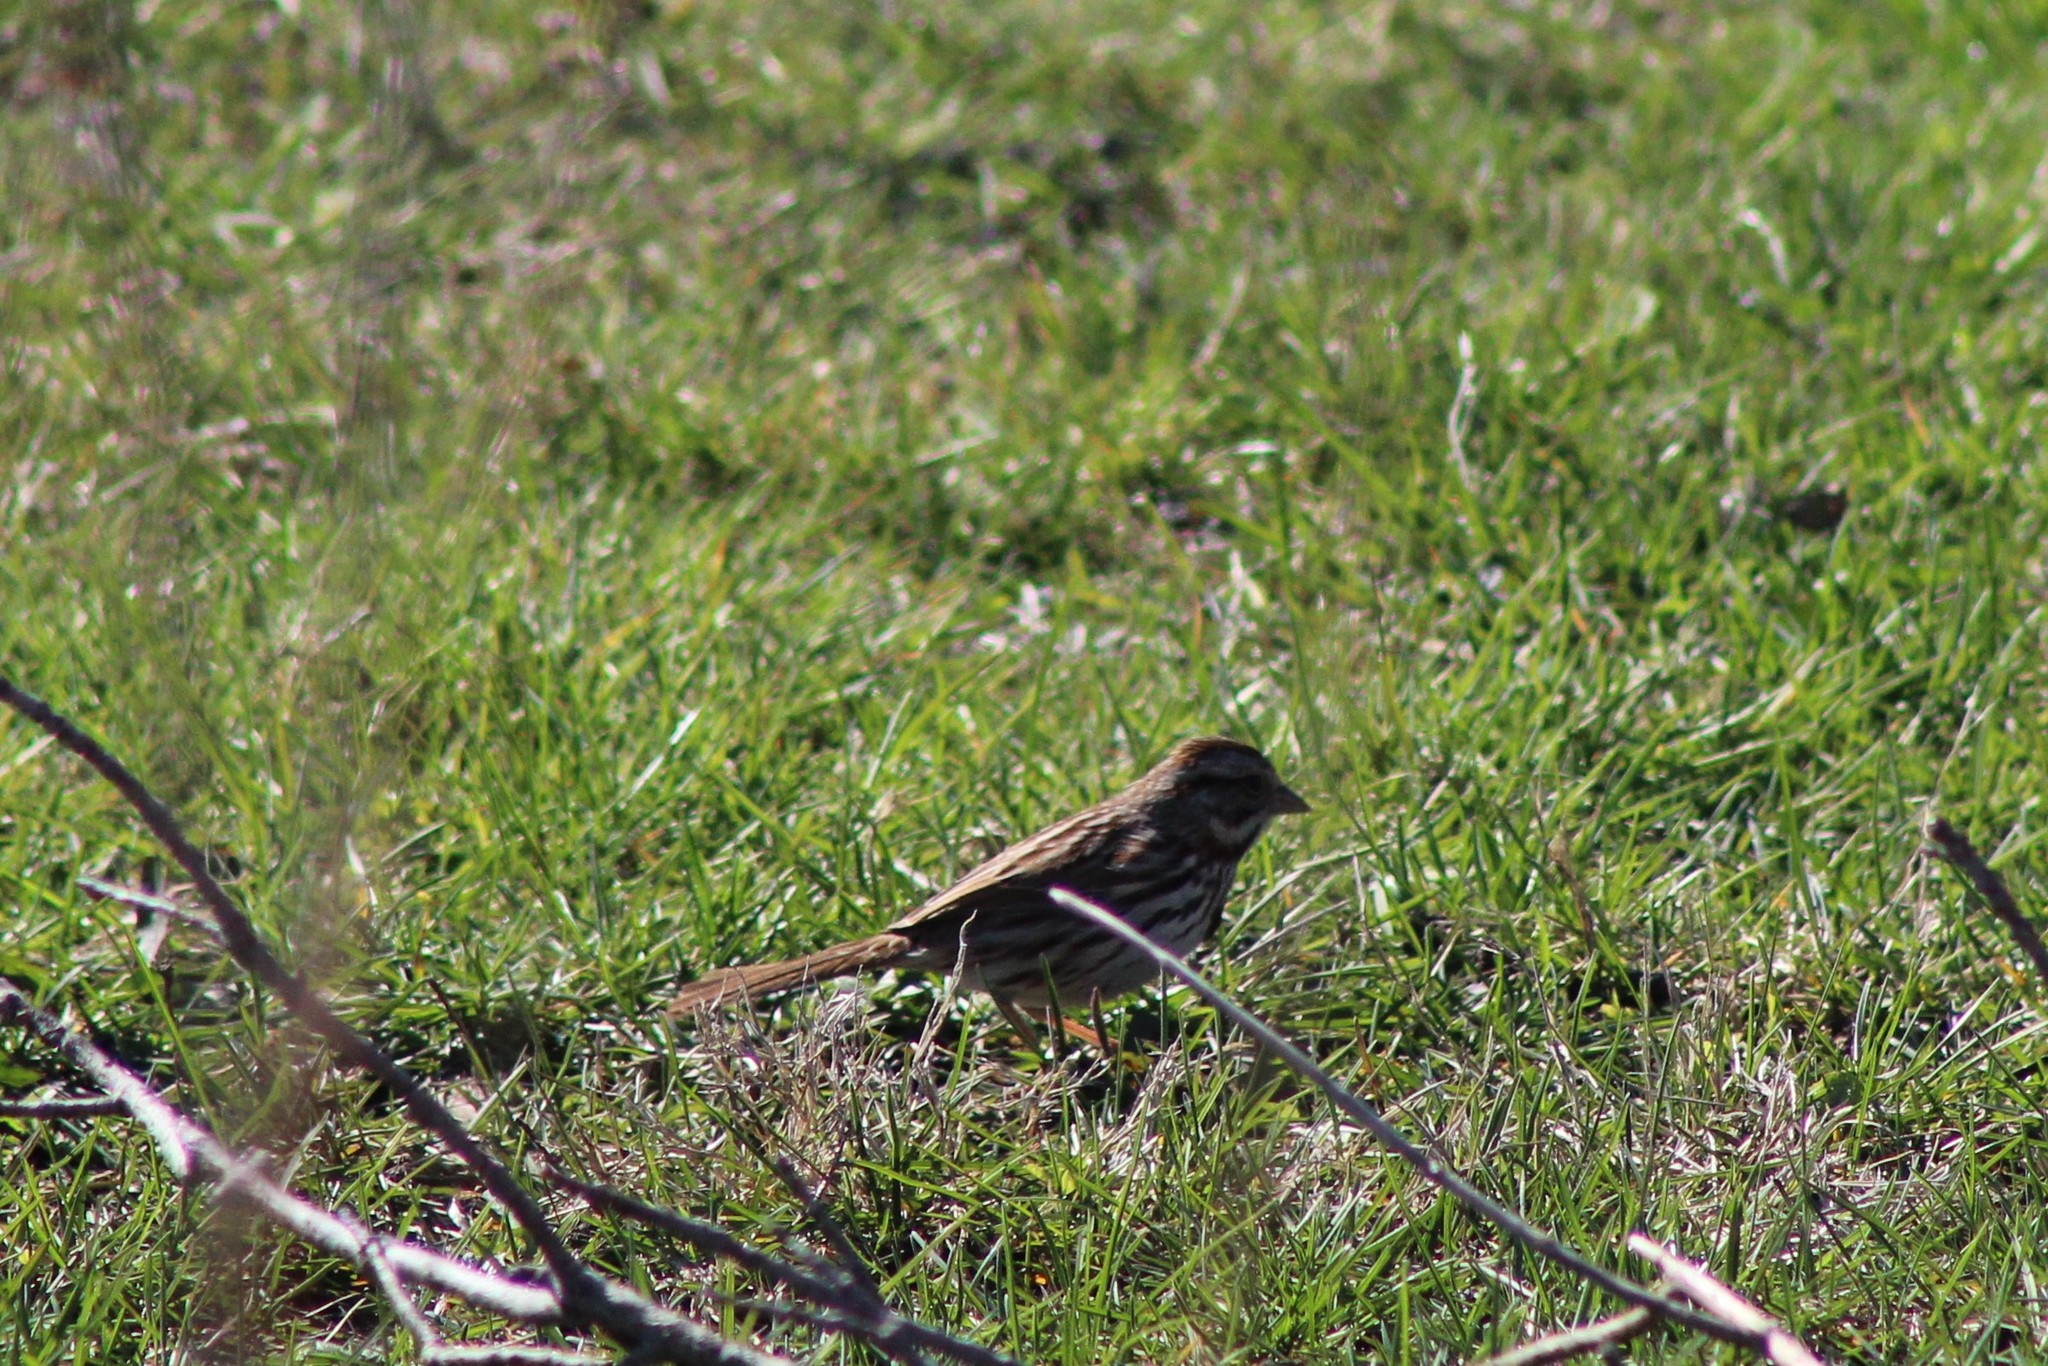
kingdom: Animalia
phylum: Chordata
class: Aves
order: Passeriformes
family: Passerellidae
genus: Melospiza
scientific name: Melospiza melodia
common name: Song sparrow
